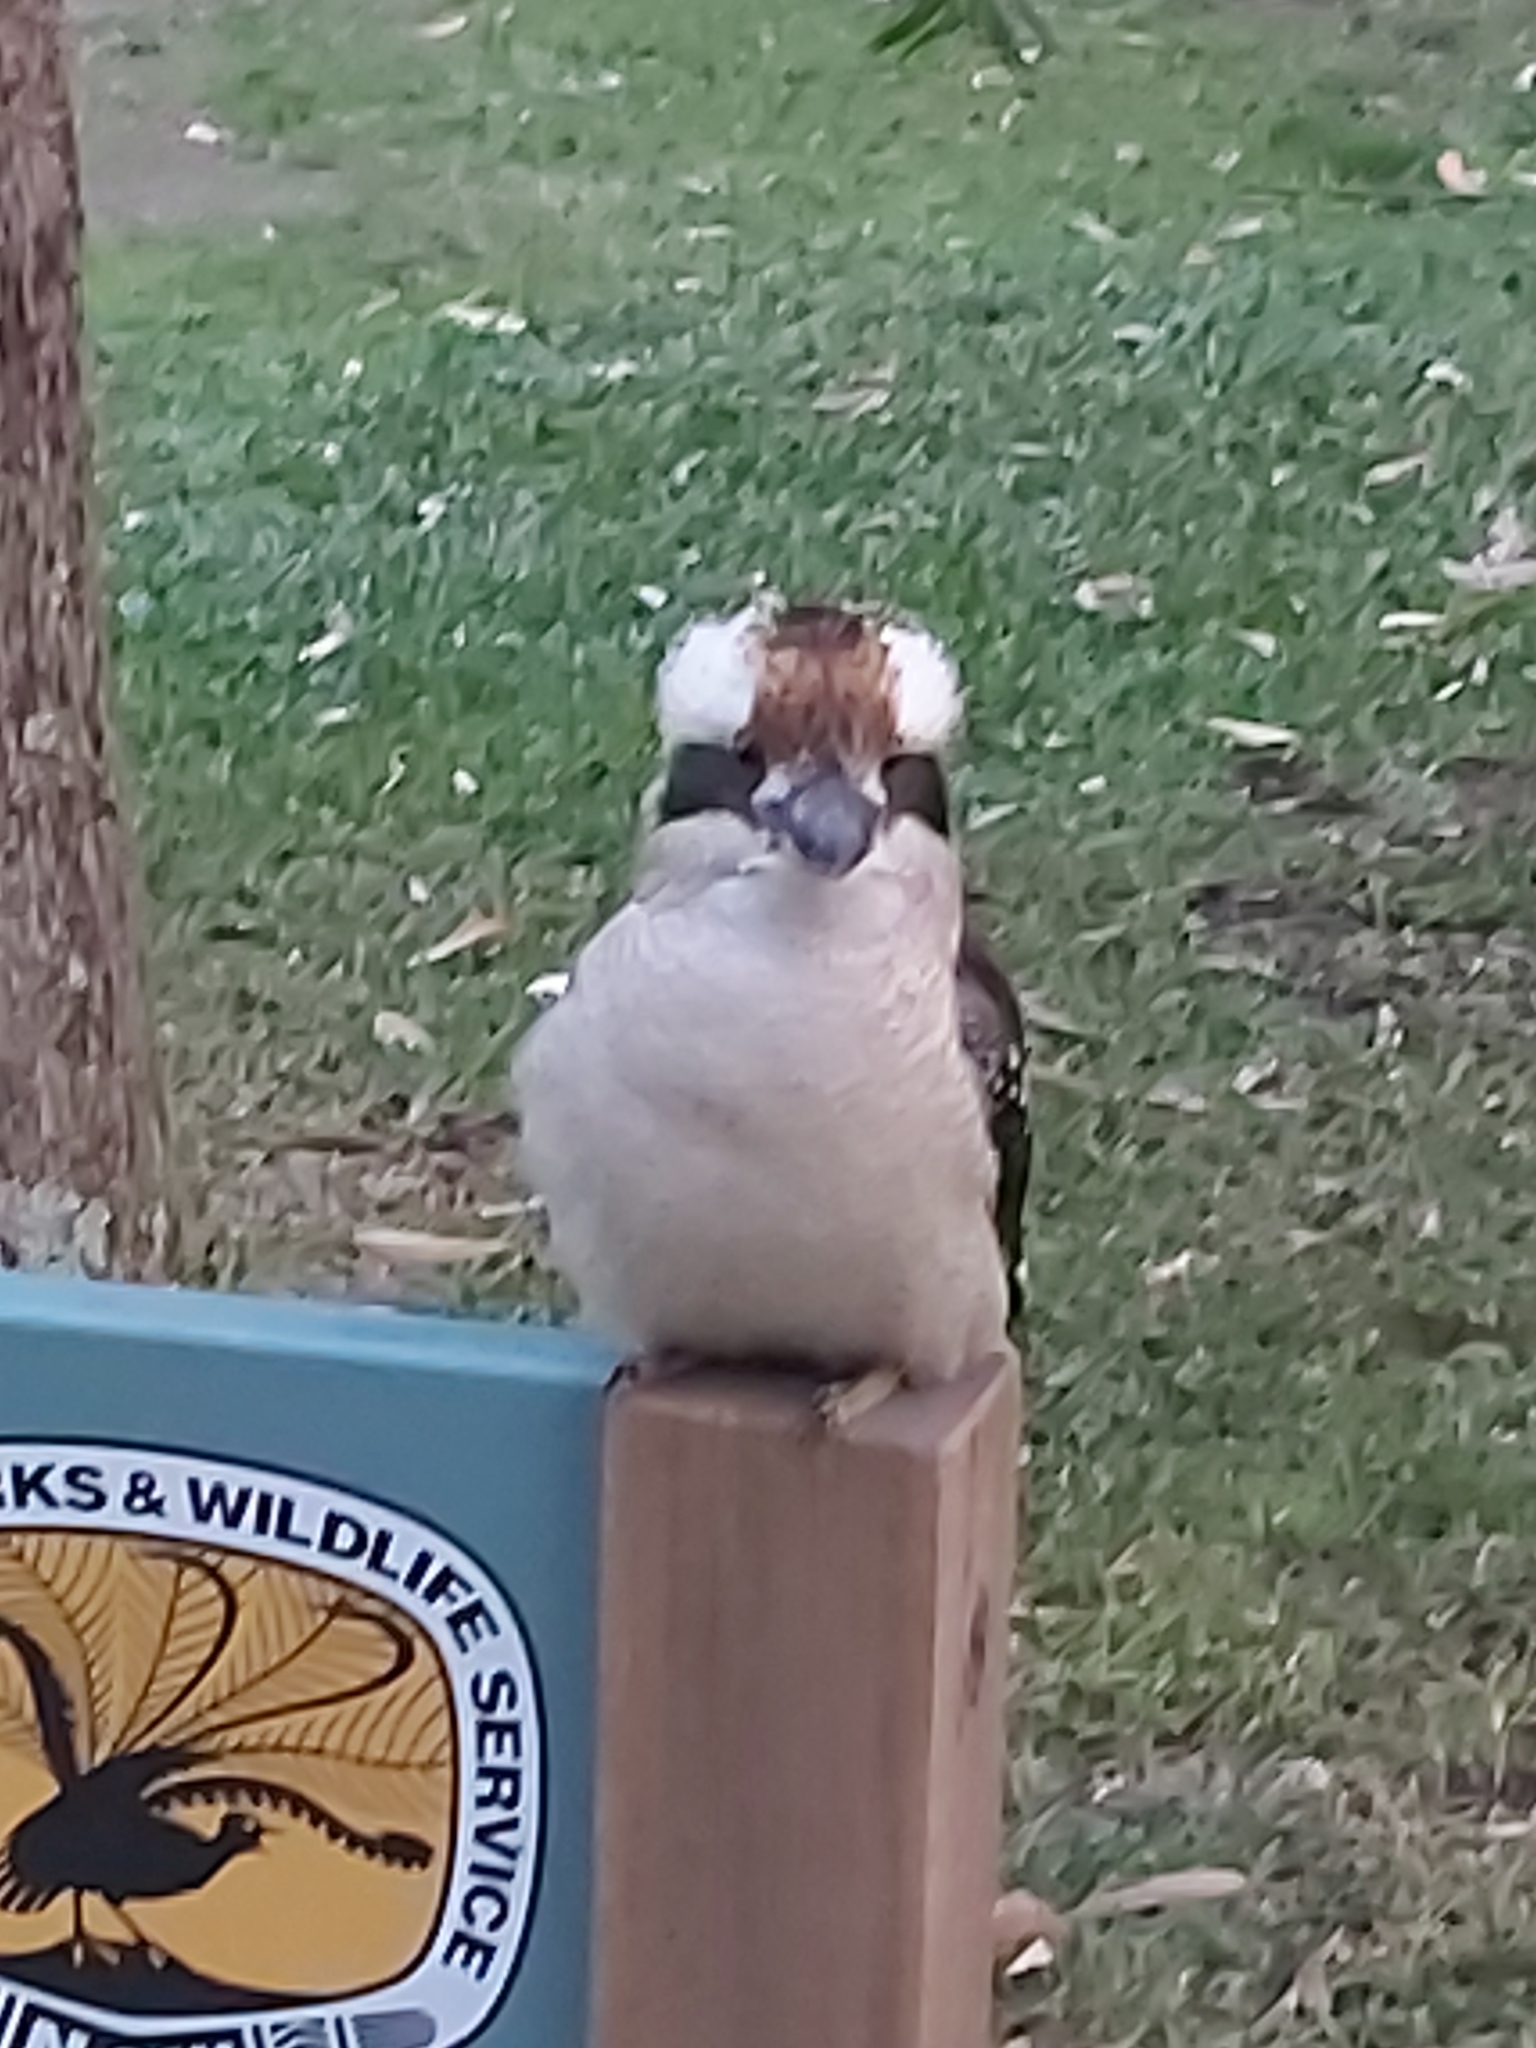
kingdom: Animalia
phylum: Chordata
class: Aves
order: Coraciiformes
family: Alcedinidae
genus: Dacelo
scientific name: Dacelo novaeguineae
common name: Laughing kookaburra
